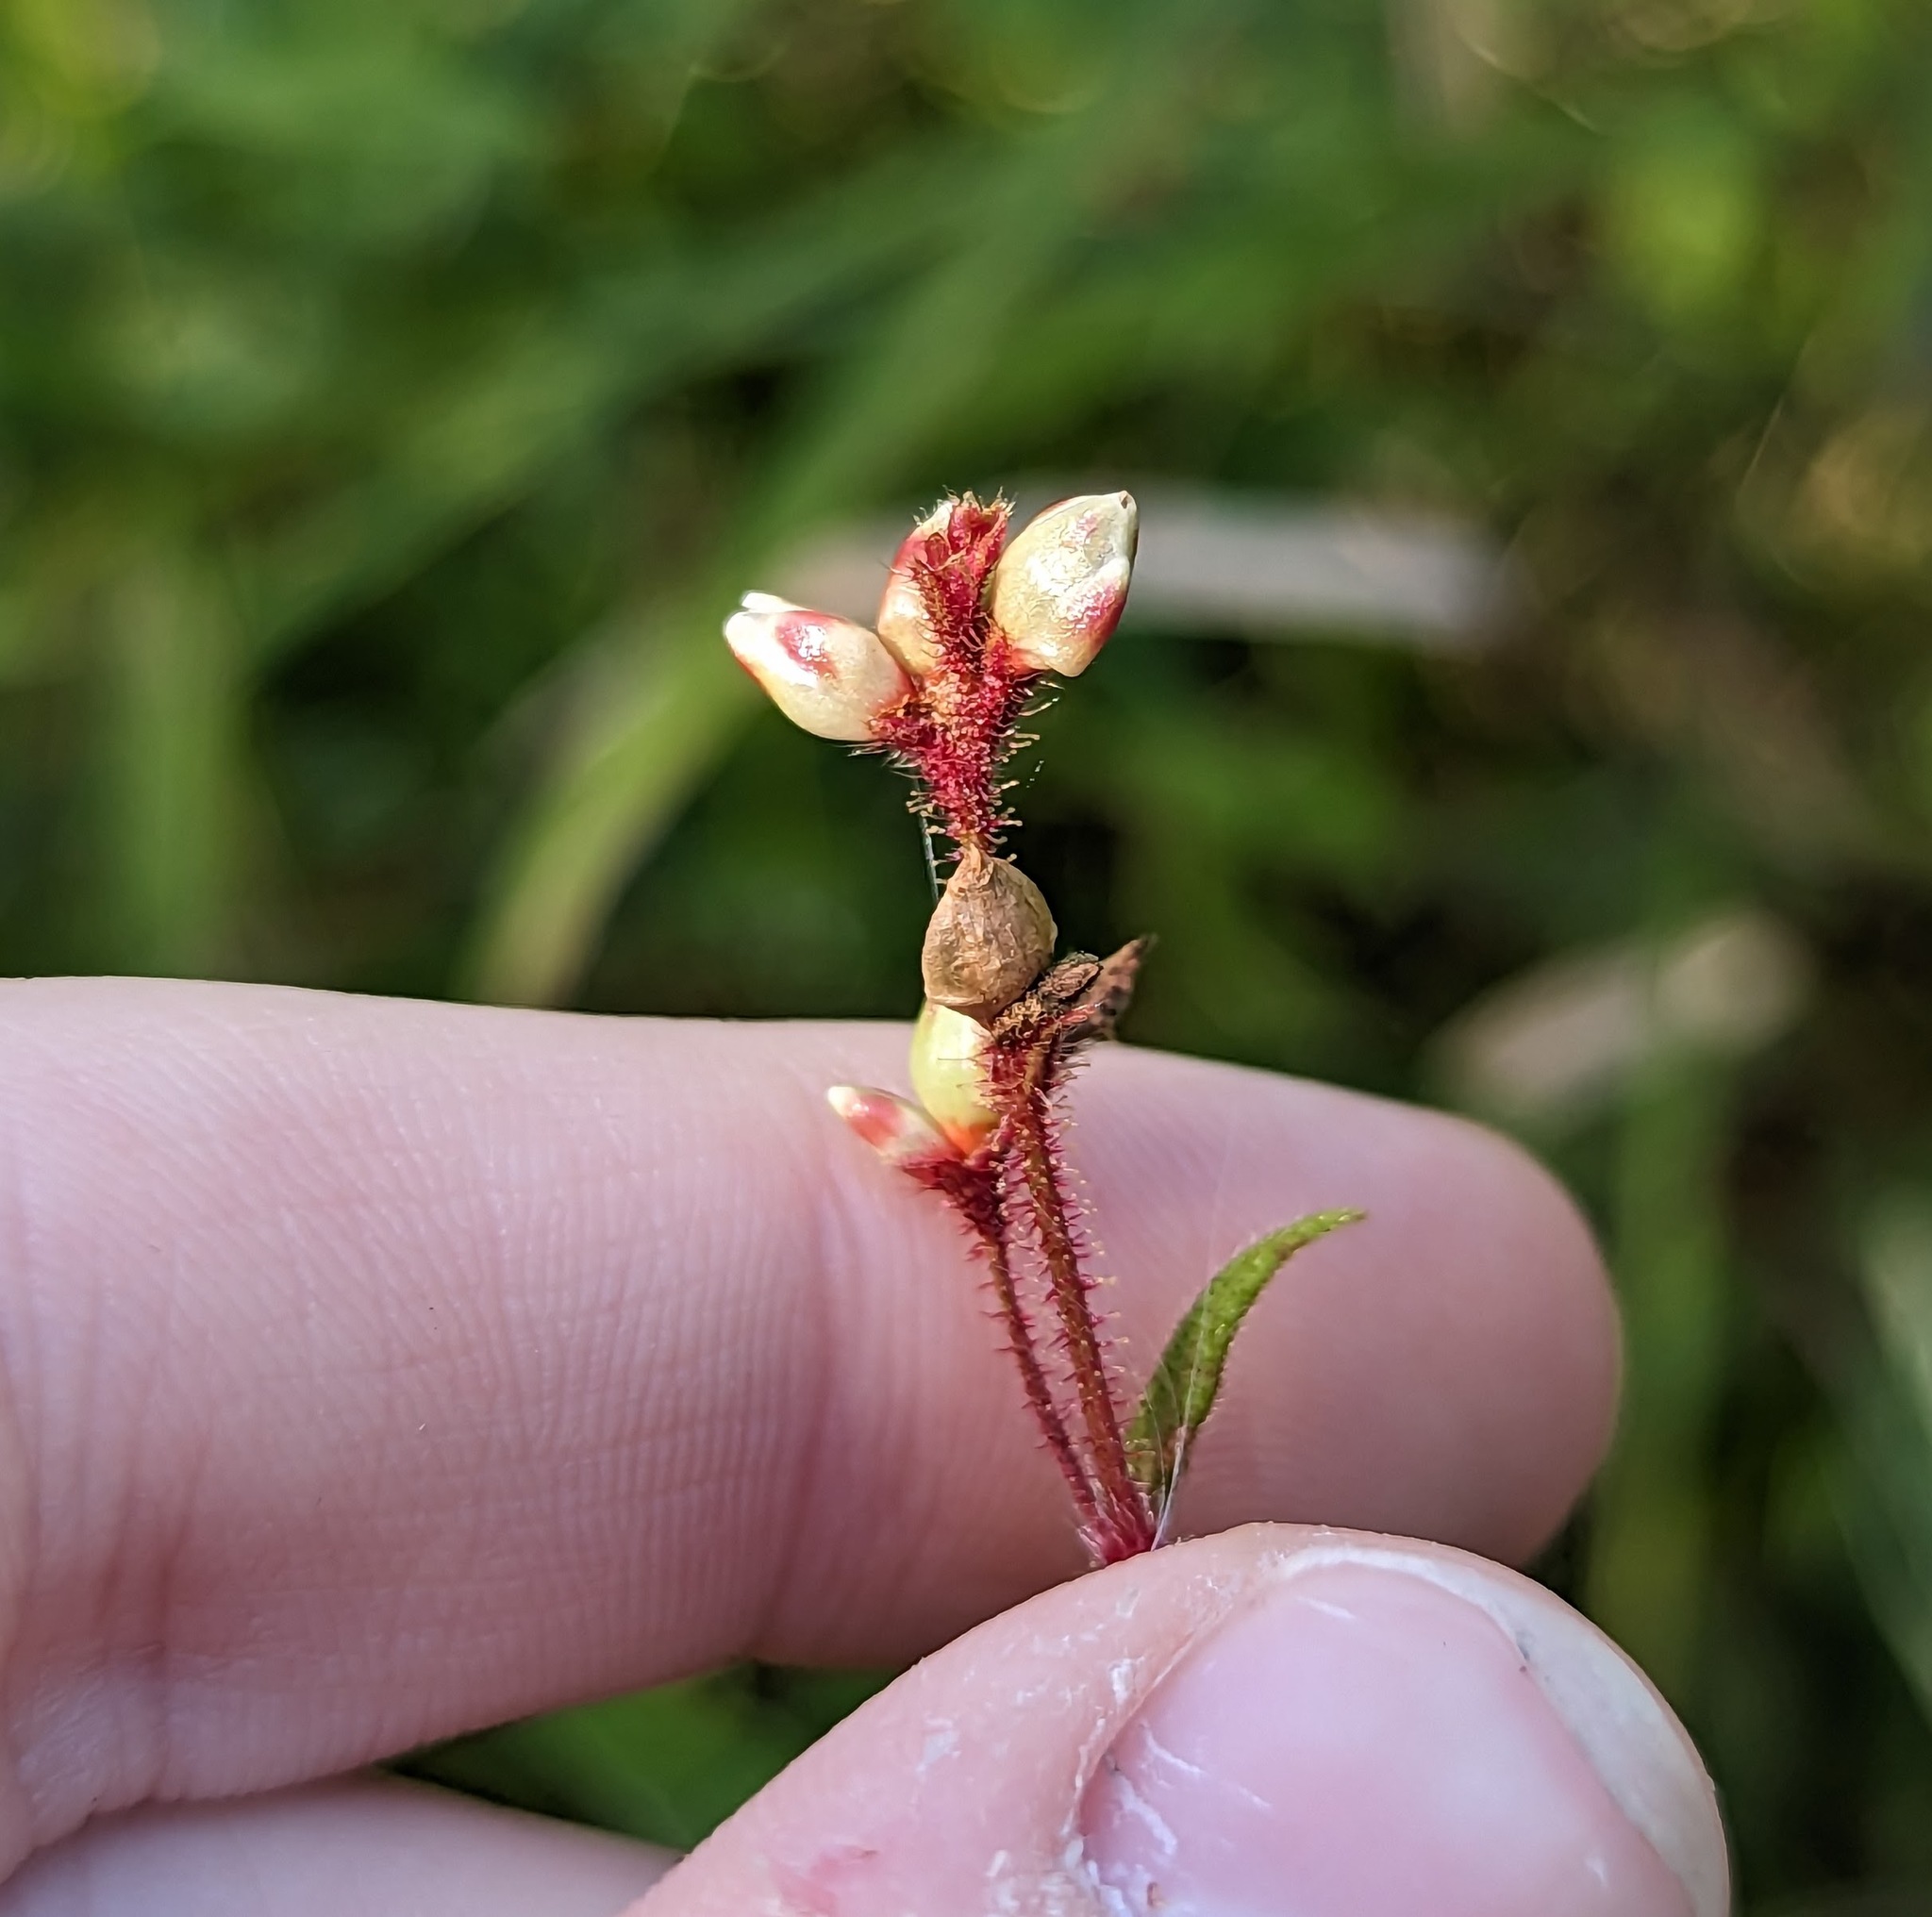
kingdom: Plantae
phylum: Tracheophyta
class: Magnoliopsida
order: Caryophyllales
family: Polygonaceae
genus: Persicaria
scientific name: Persicaria arifolia
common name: Halberd-leaved tear-thumb
